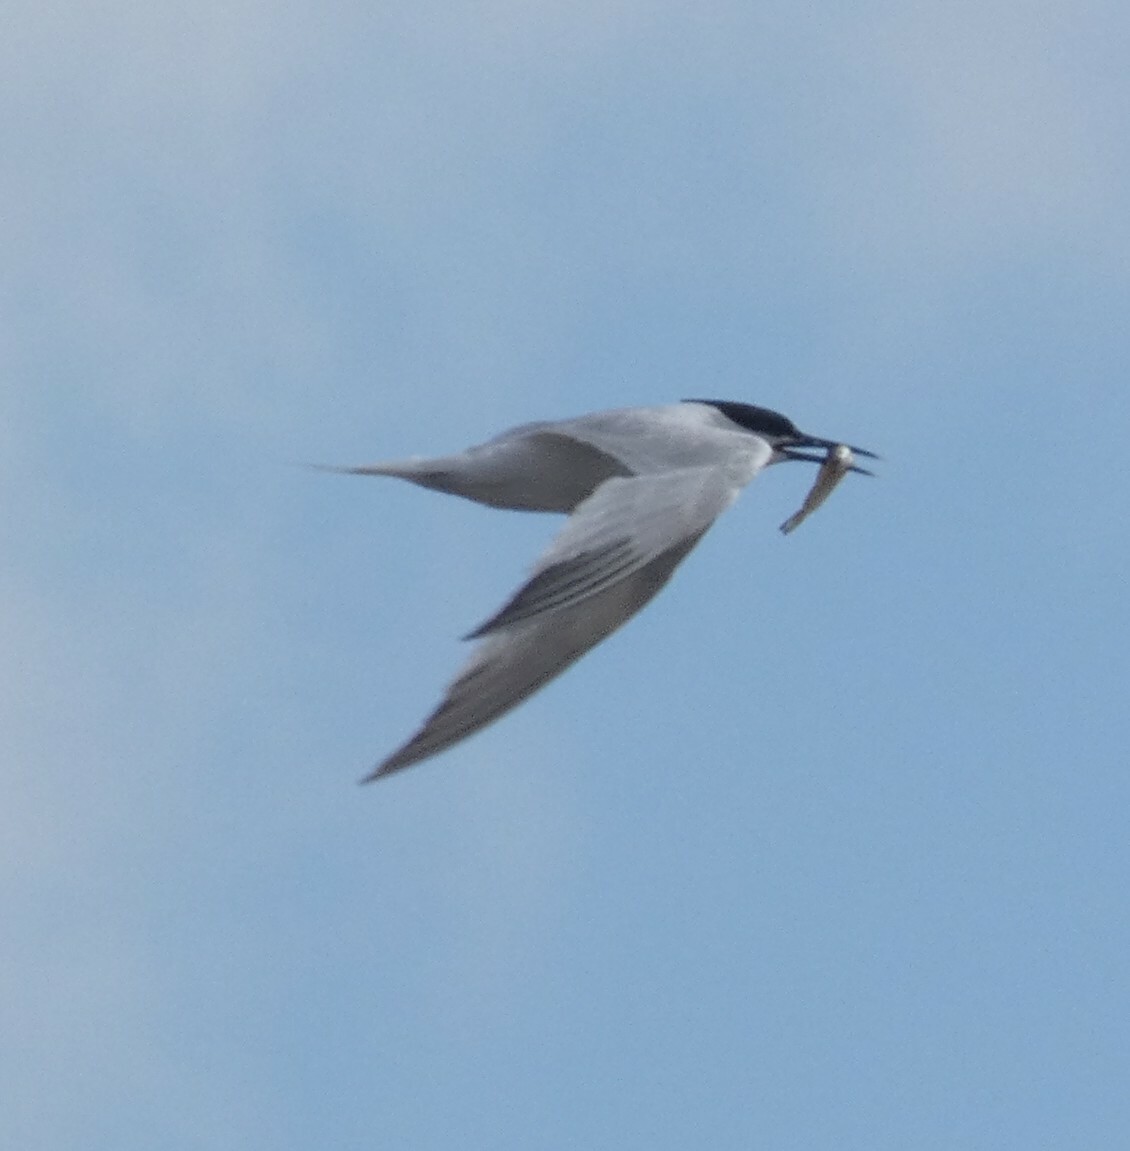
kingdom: Animalia
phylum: Chordata
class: Aves
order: Charadriiformes
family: Laridae
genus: Thalasseus
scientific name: Thalasseus sandvicensis
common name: Sandwich tern
